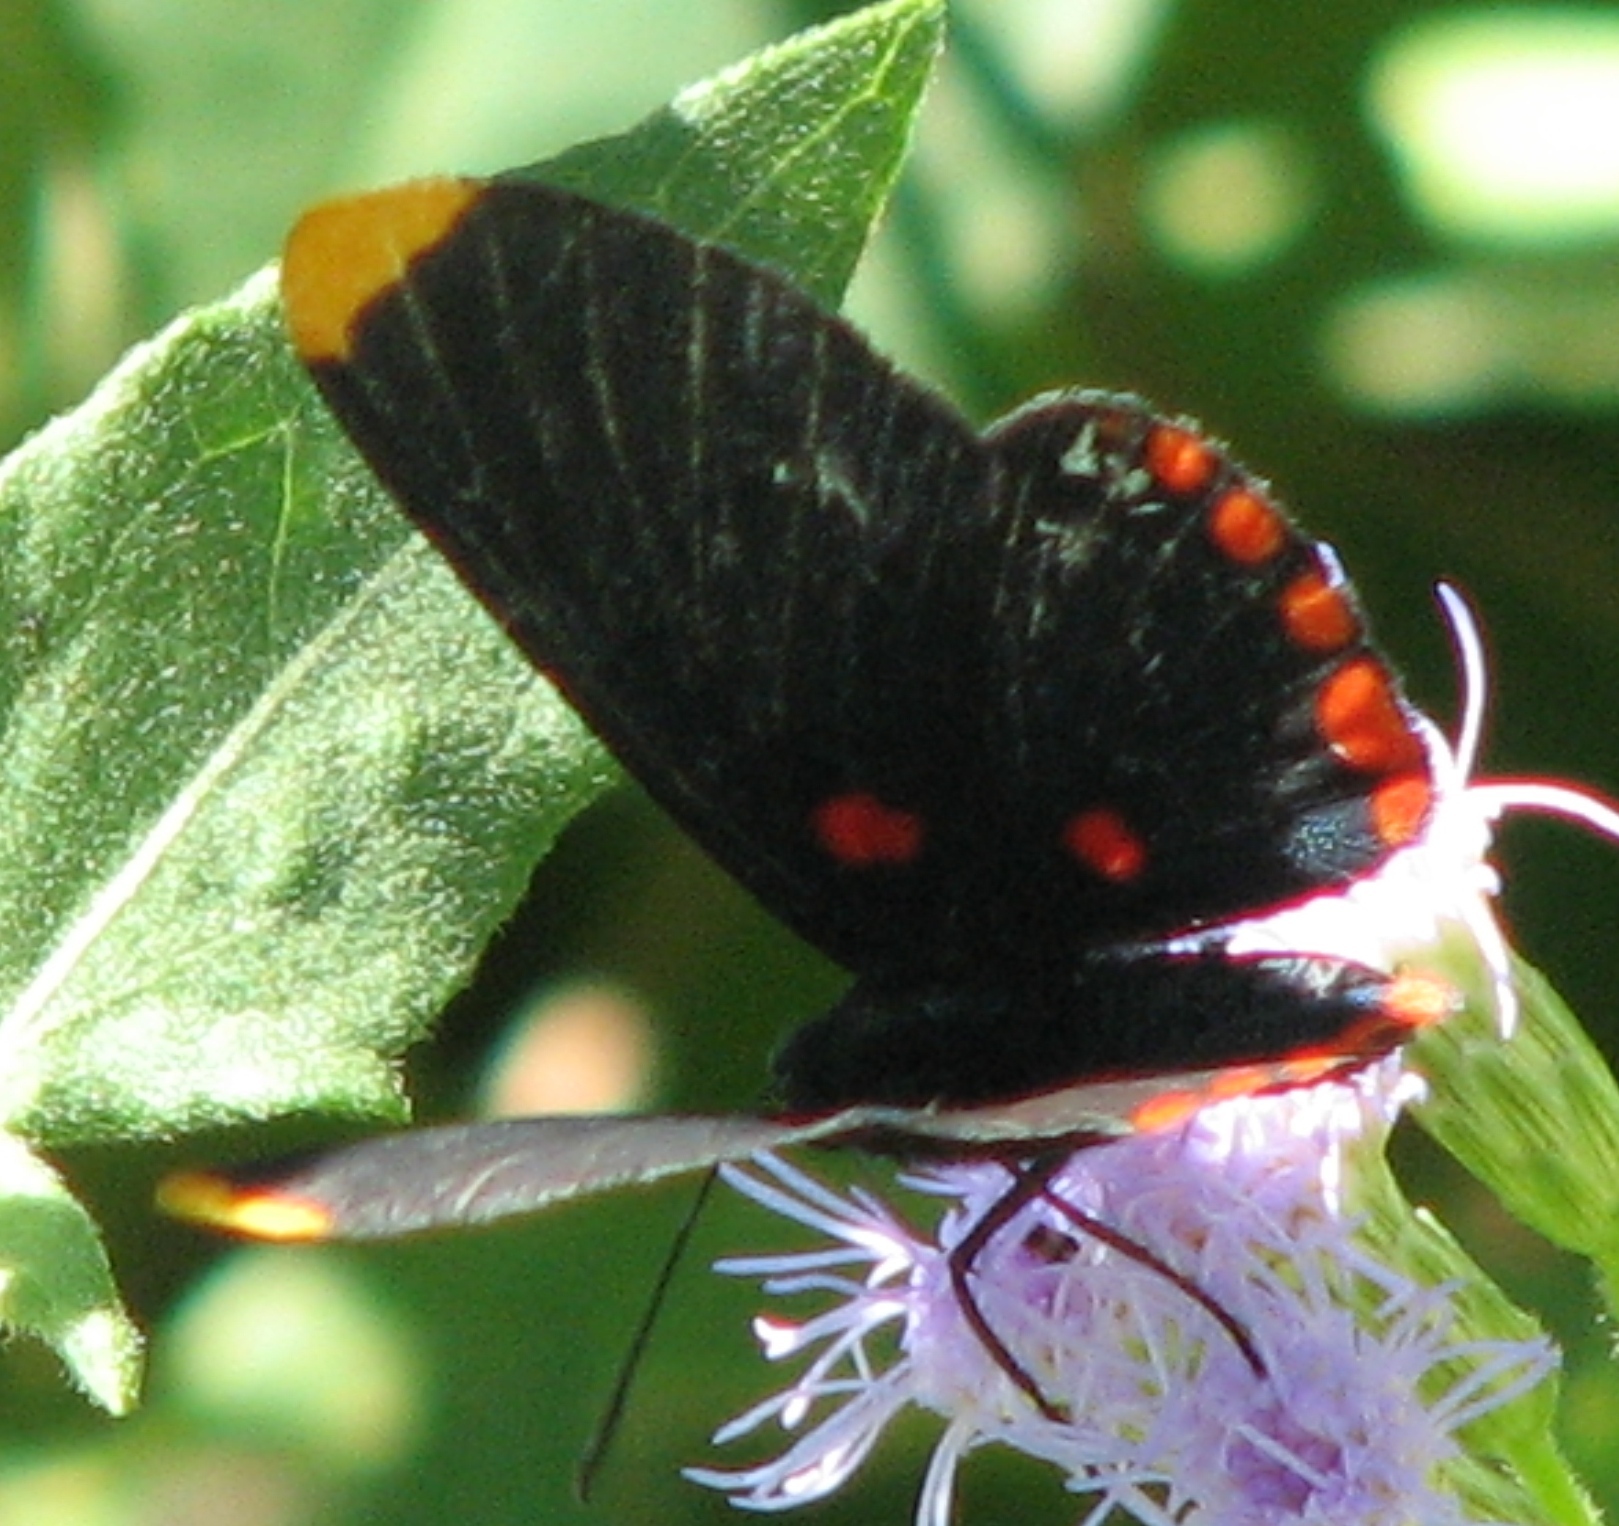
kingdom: Animalia
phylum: Arthropoda
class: Insecta
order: Lepidoptera
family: Lycaenidae
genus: Melanis
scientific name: Melanis pixe
